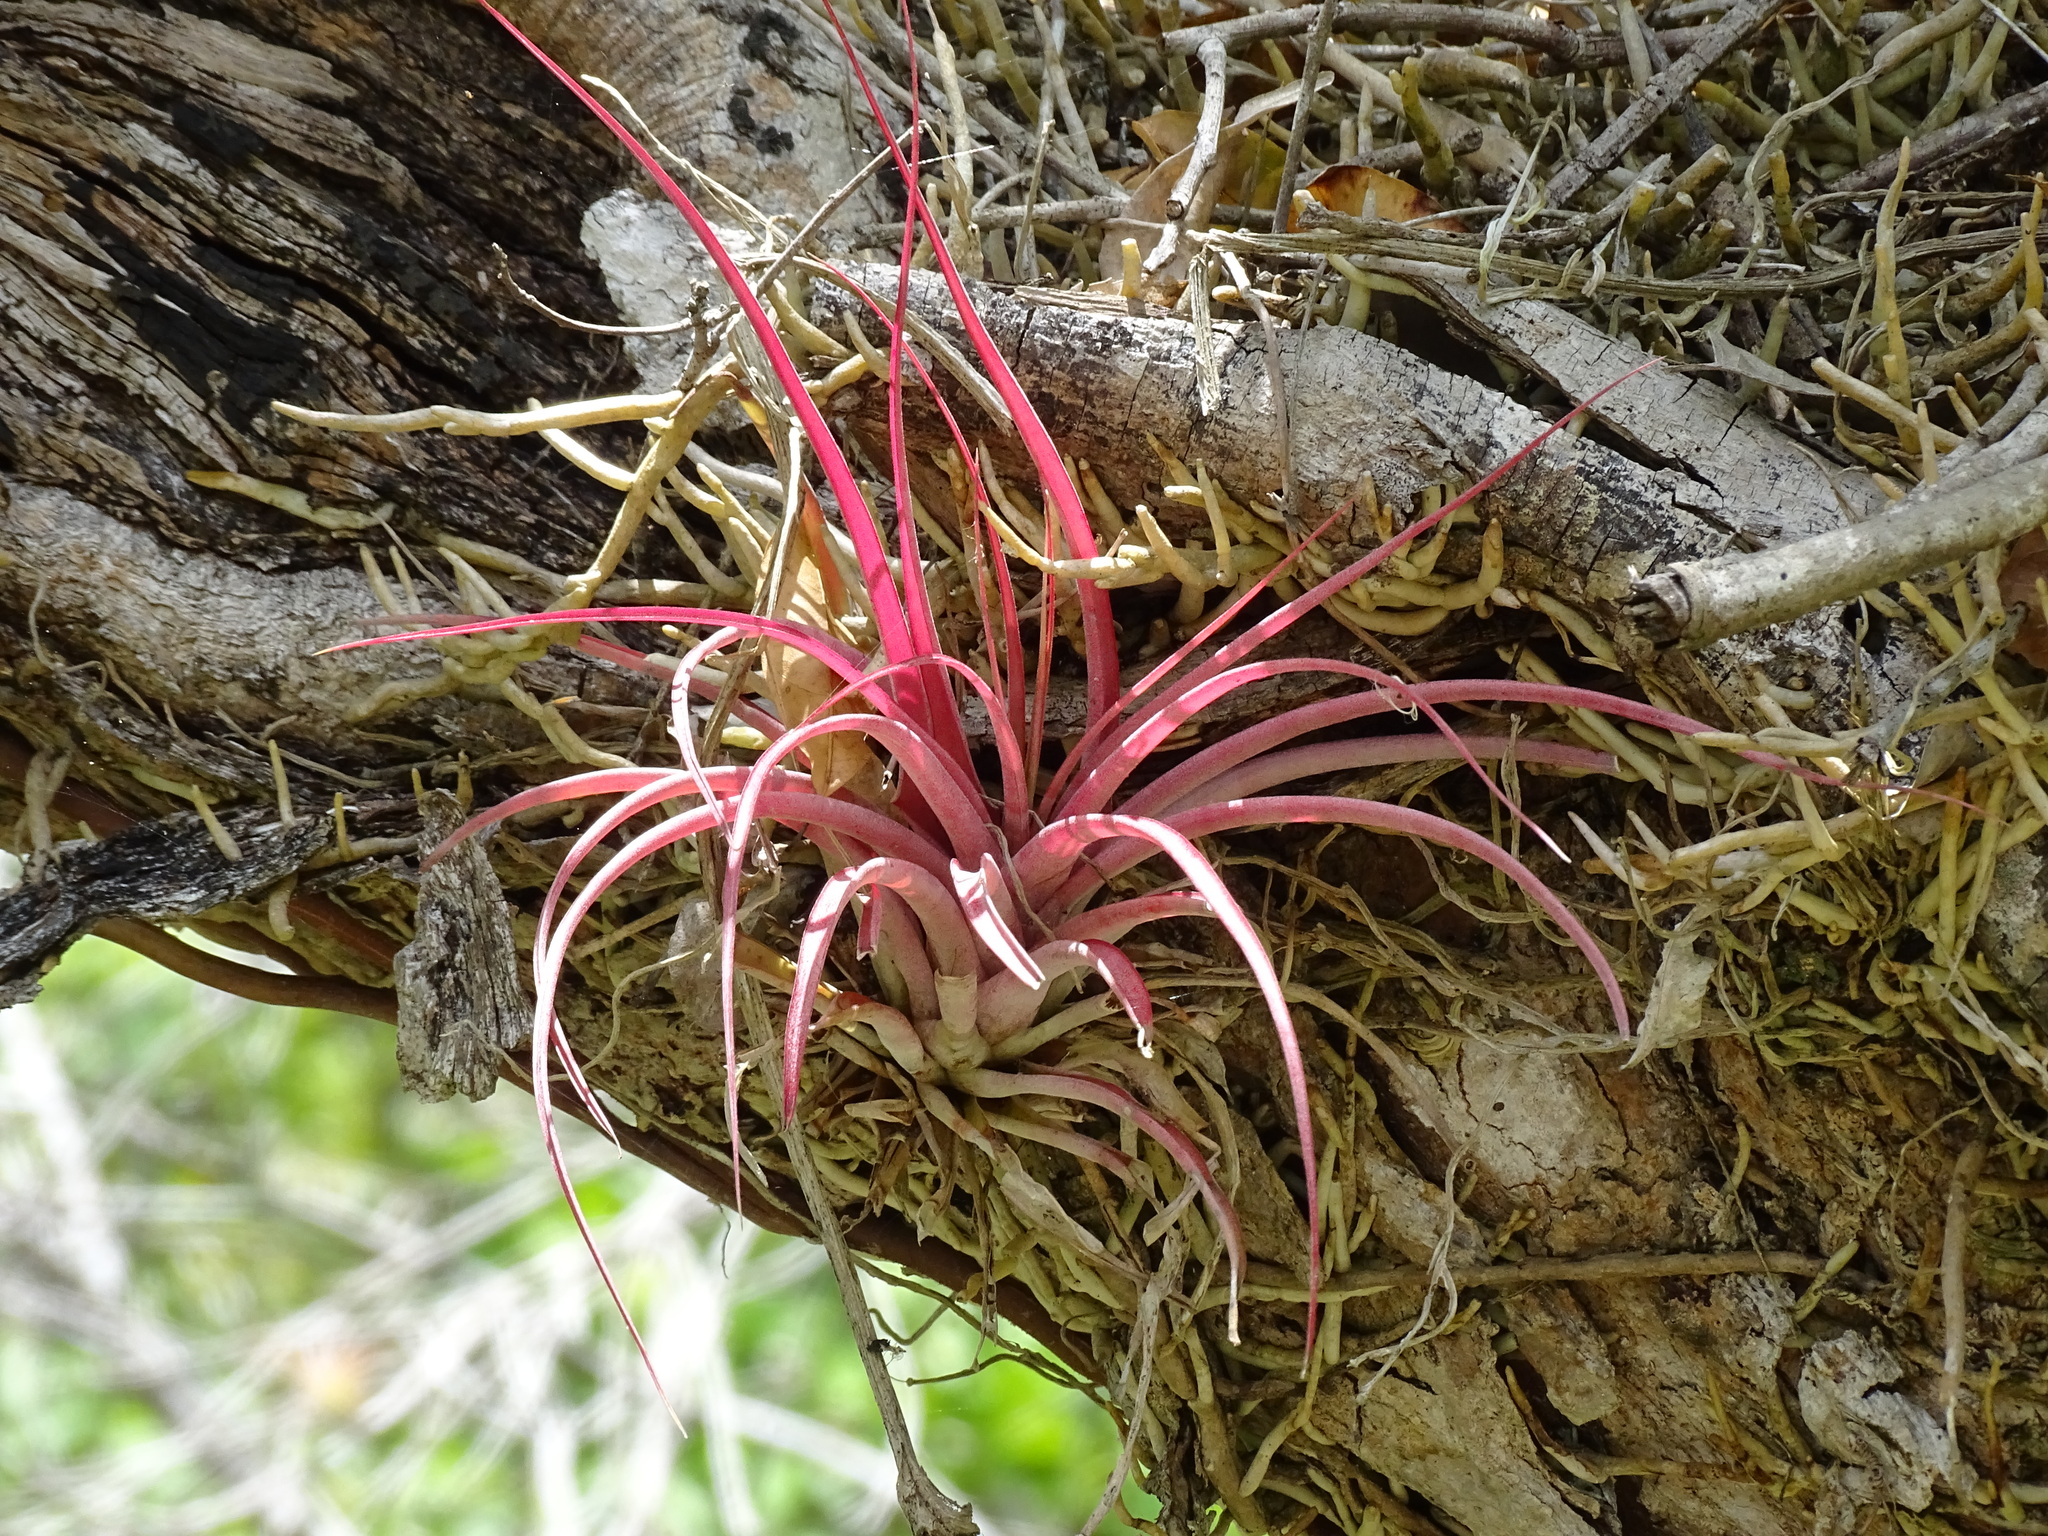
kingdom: Plantae
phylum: Tracheophyta
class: Liliopsida
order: Poales
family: Bromeliaceae
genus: Tillandsia
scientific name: Tillandsia brachycaulos
